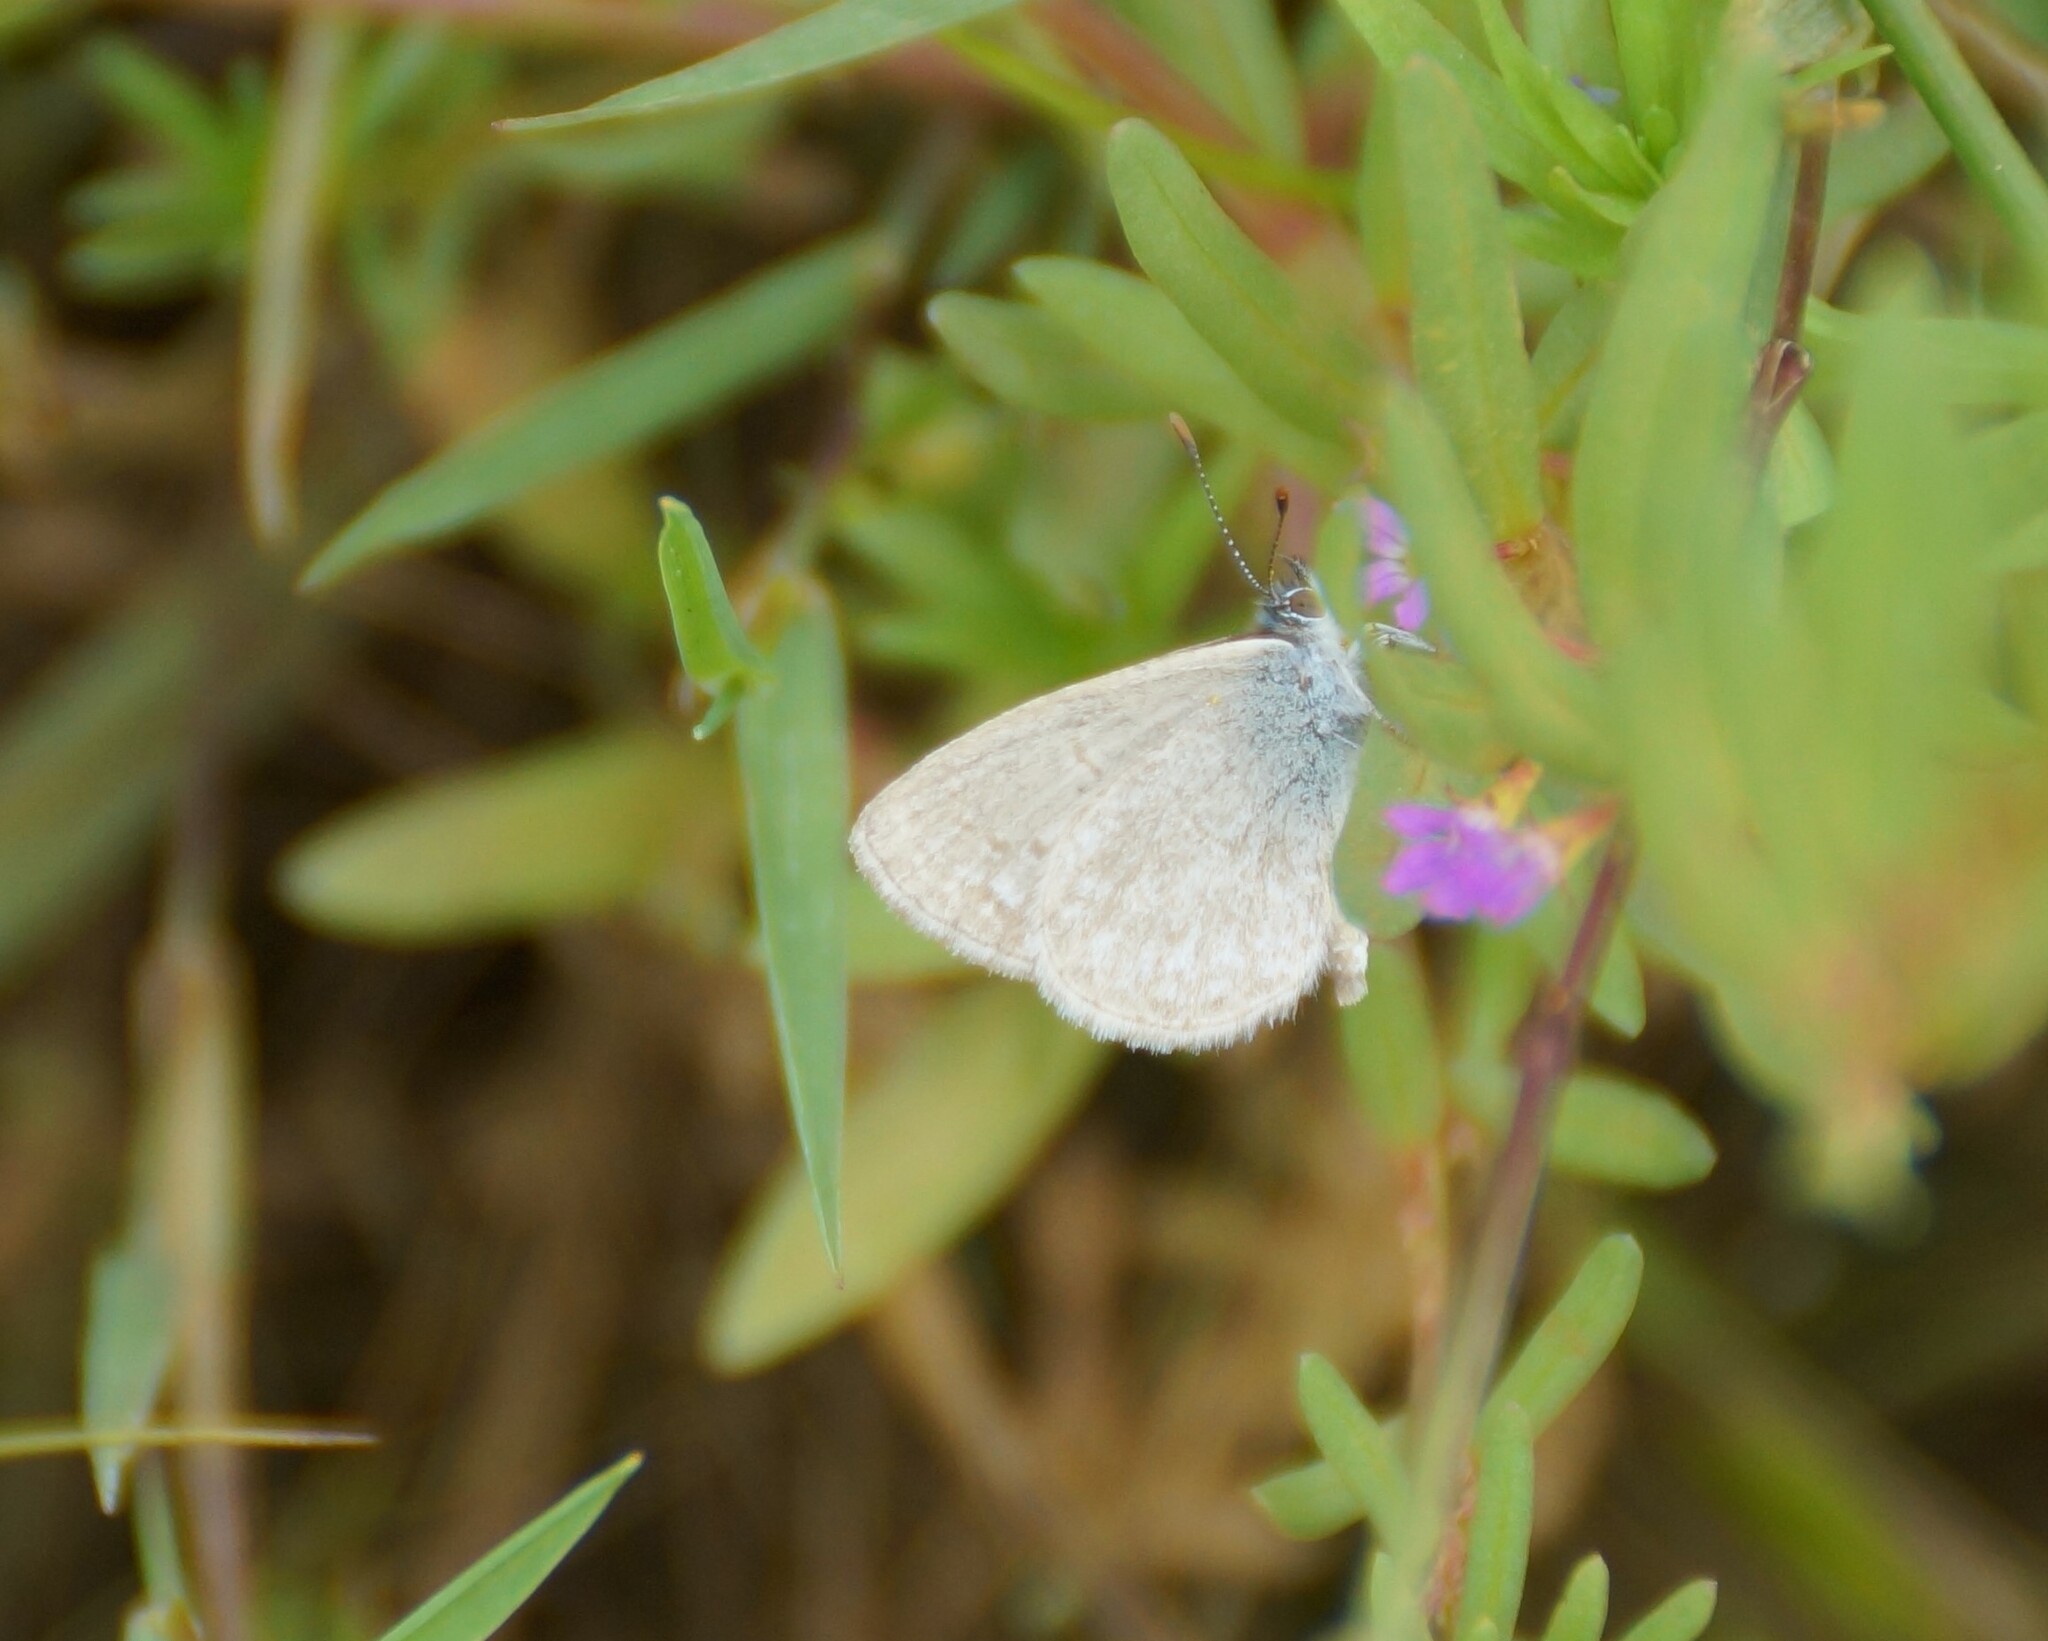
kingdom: Animalia
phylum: Arthropoda
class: Insecta
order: Lepidoptera
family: Lycaenidae
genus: Zizina
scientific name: Zizina otis
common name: Lesser grass blue
